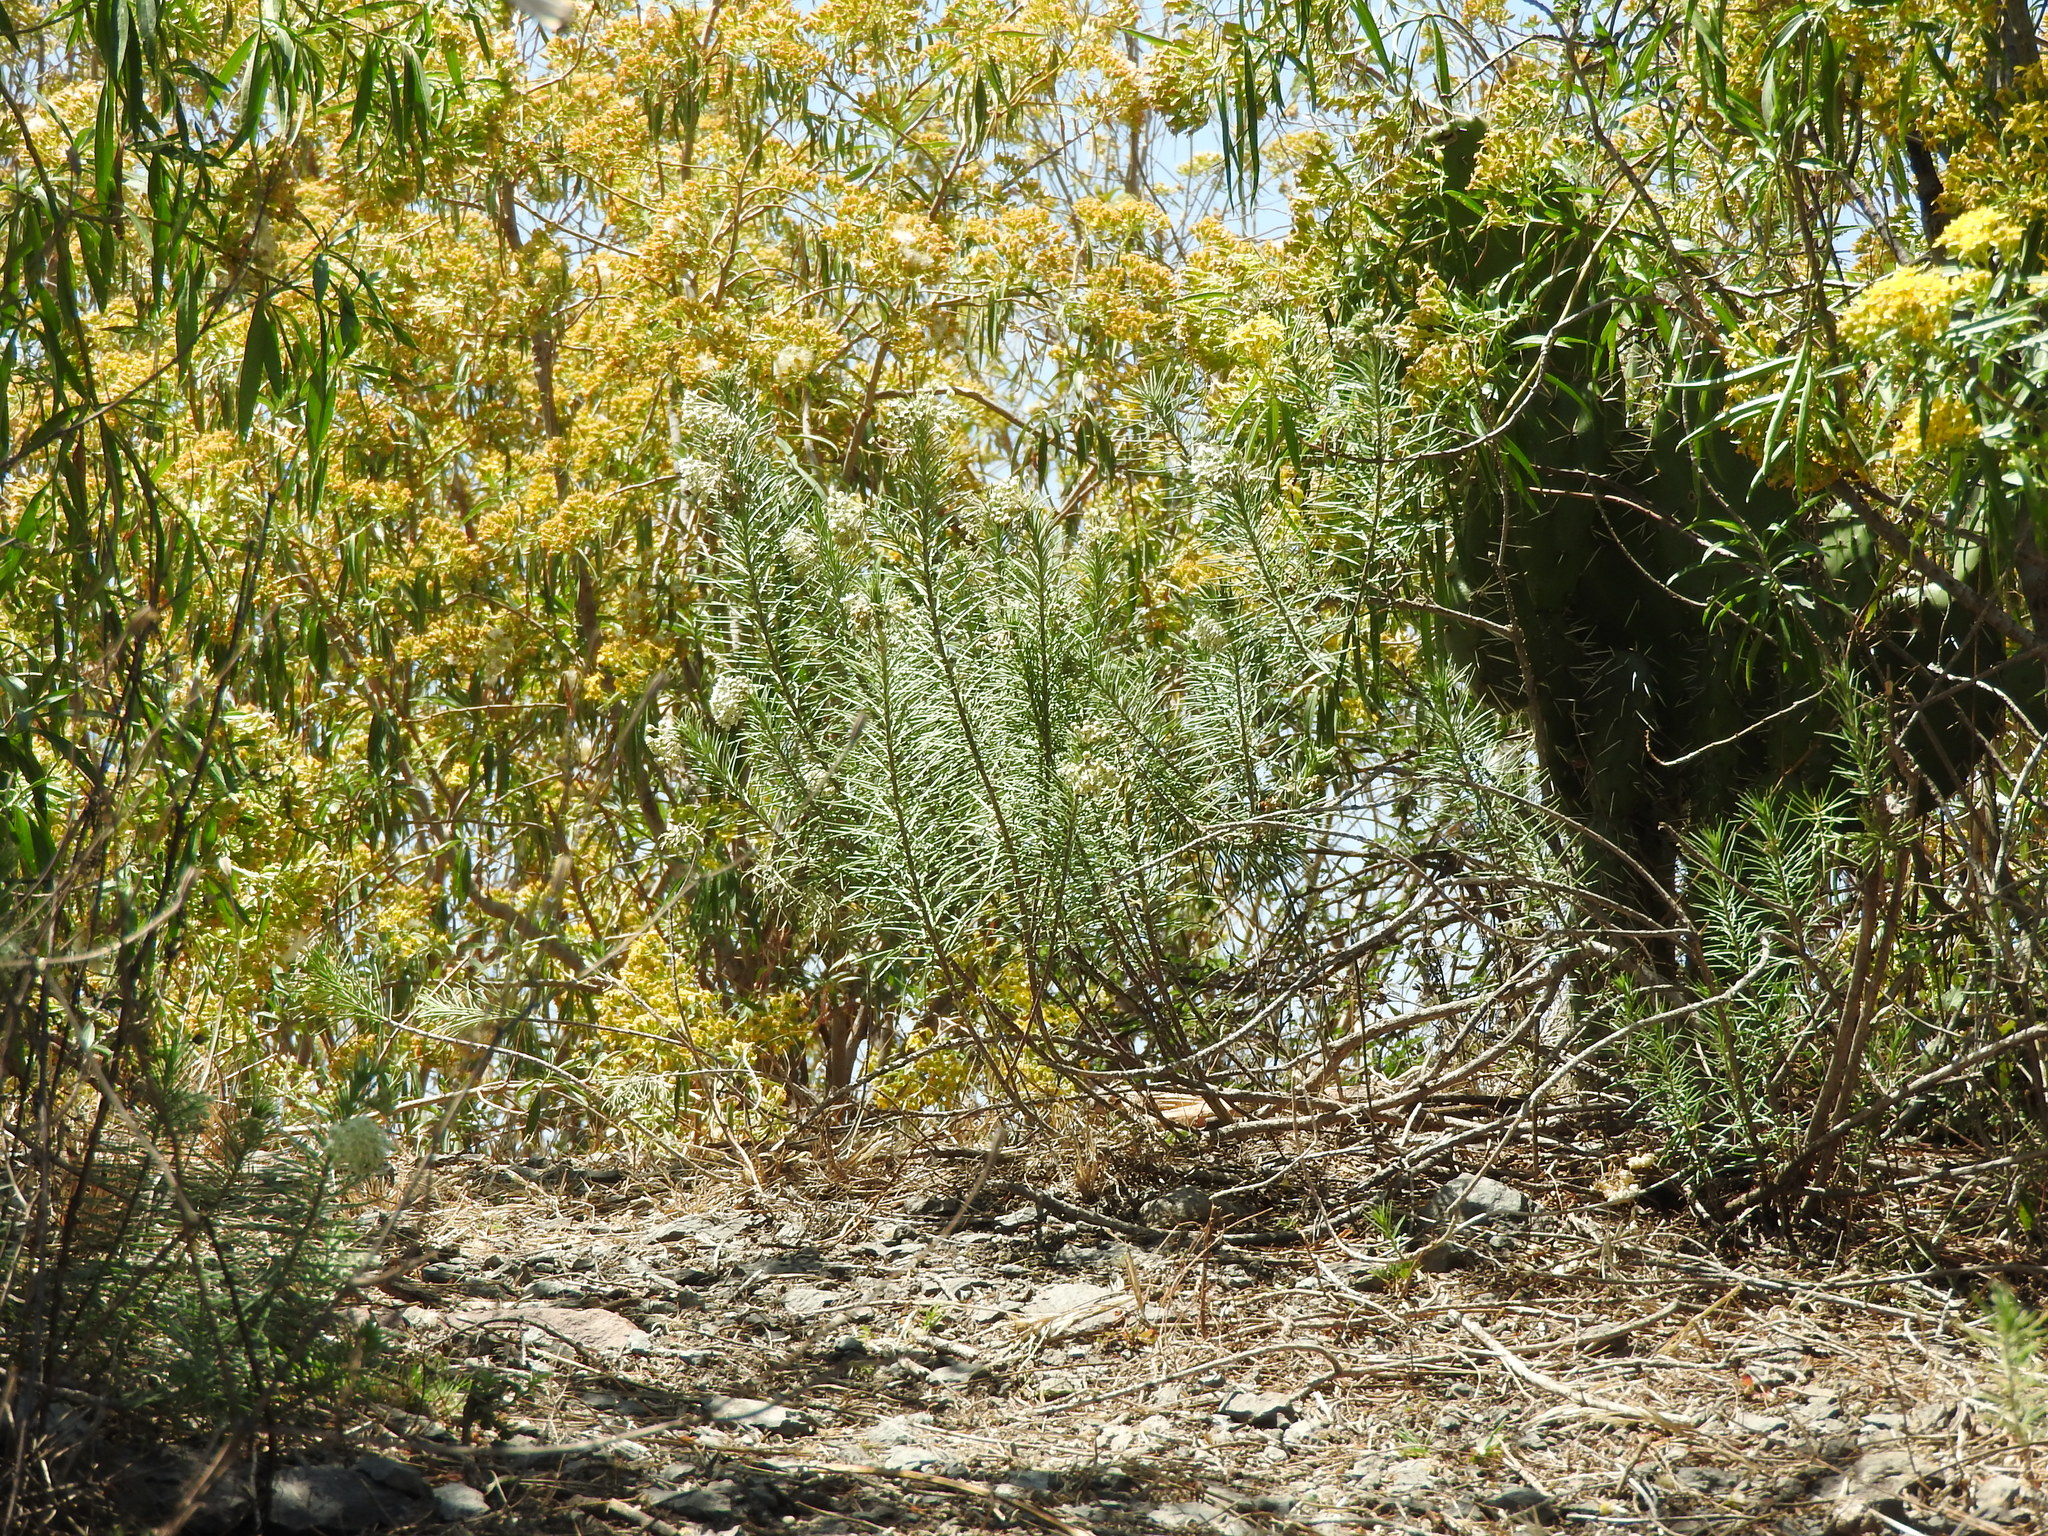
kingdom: Plantae
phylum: Tracheophyta
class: Magnoliopsida
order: Gentianales
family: Apocynaceae
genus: Asclepias
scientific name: Asclepias linaria
